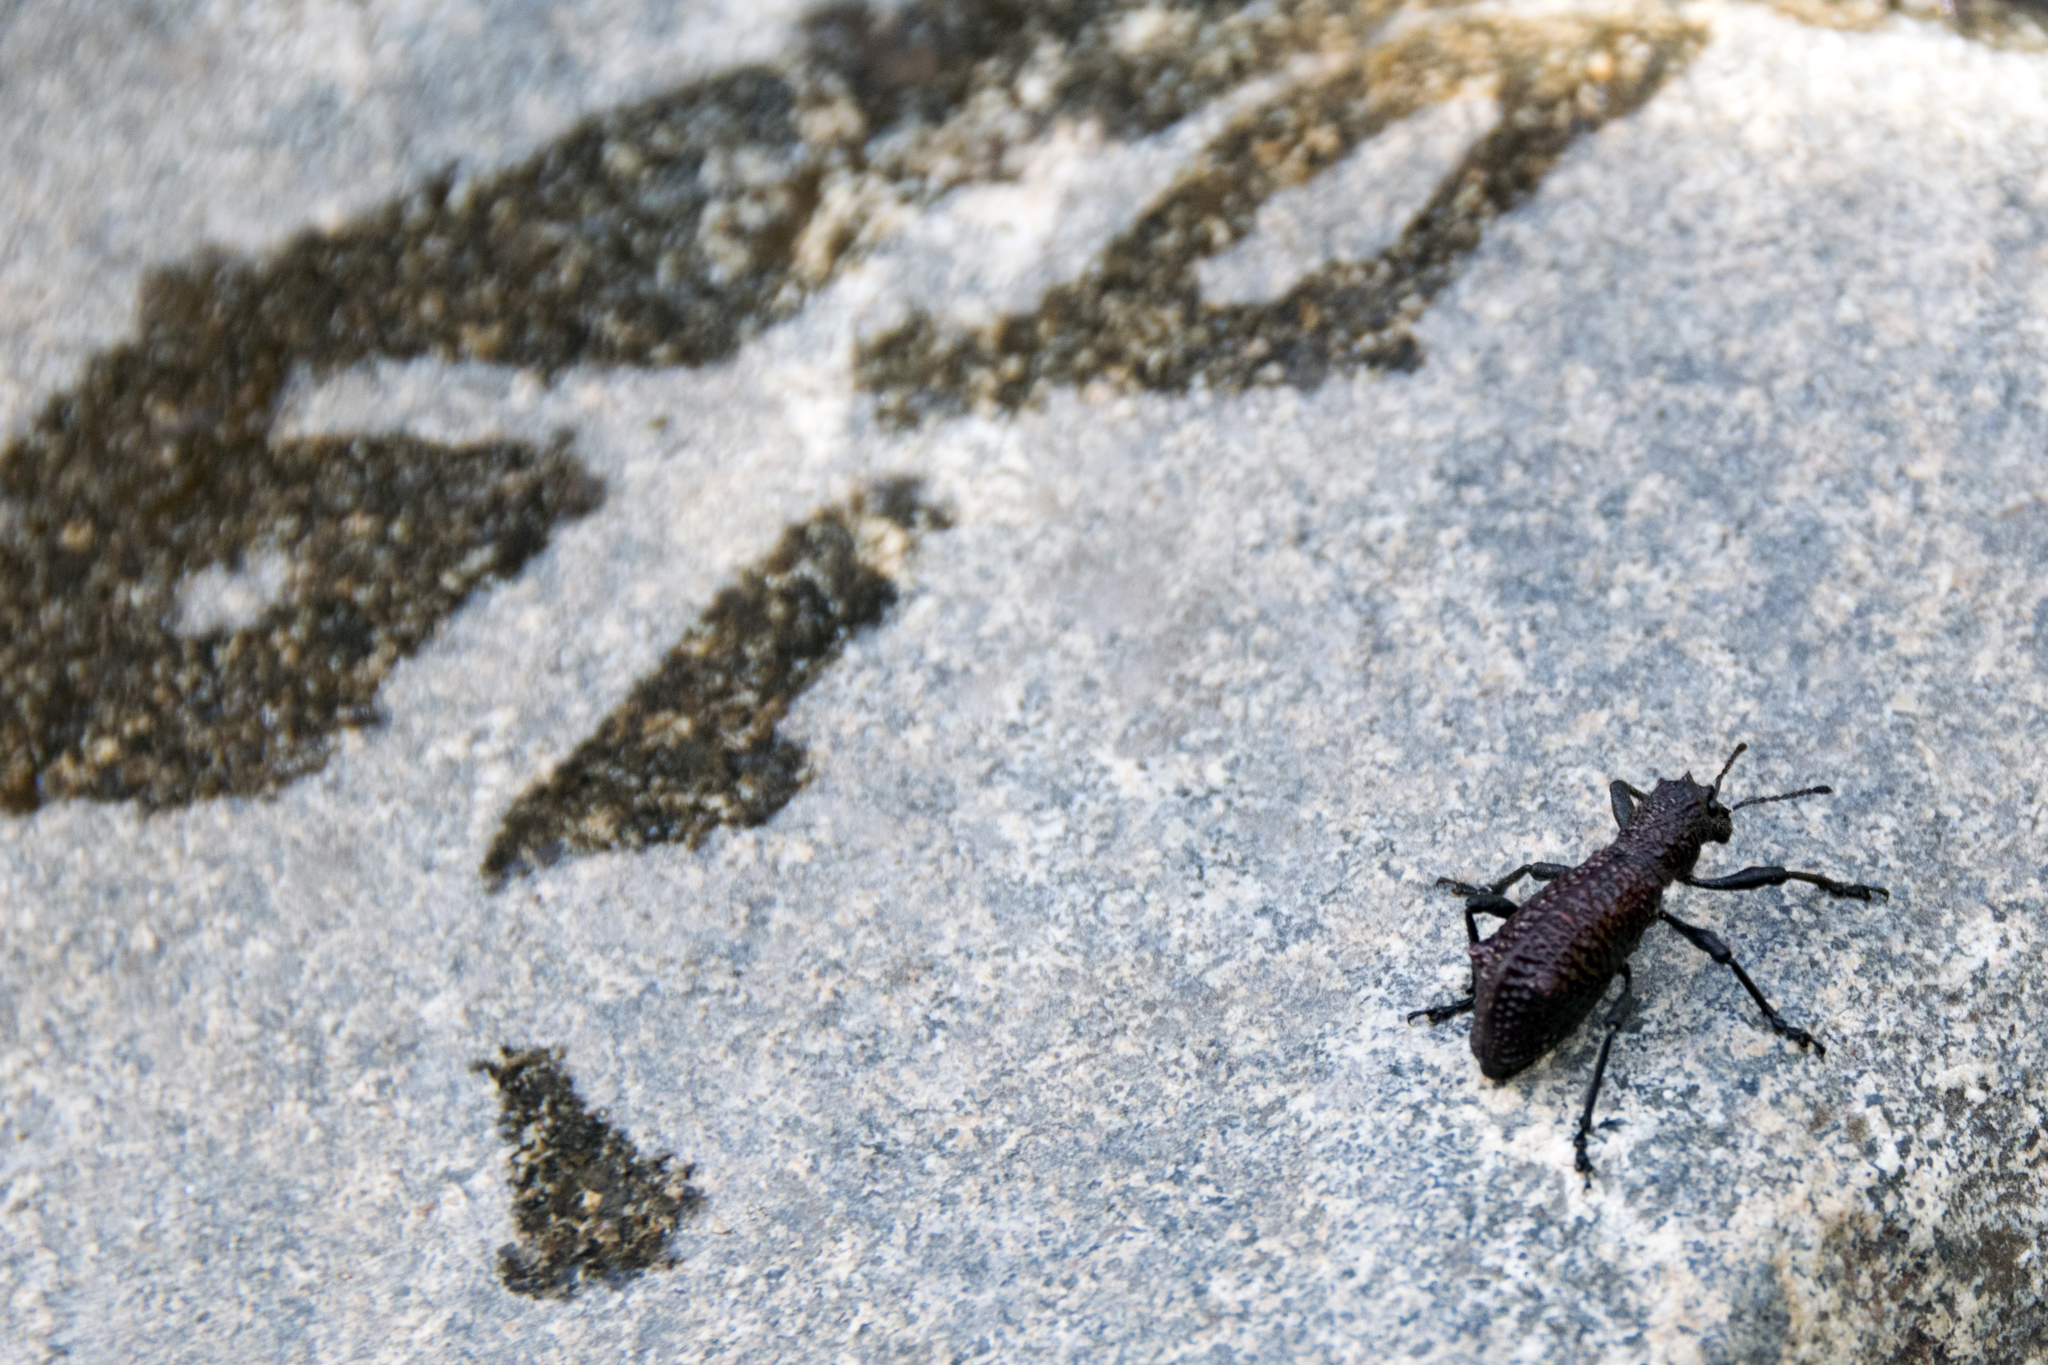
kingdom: Animalia
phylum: Arthropoda
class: Insecta
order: Coleoptera
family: Curculionidae
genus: Aegorhinus
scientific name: Aegorhinus vitulus
